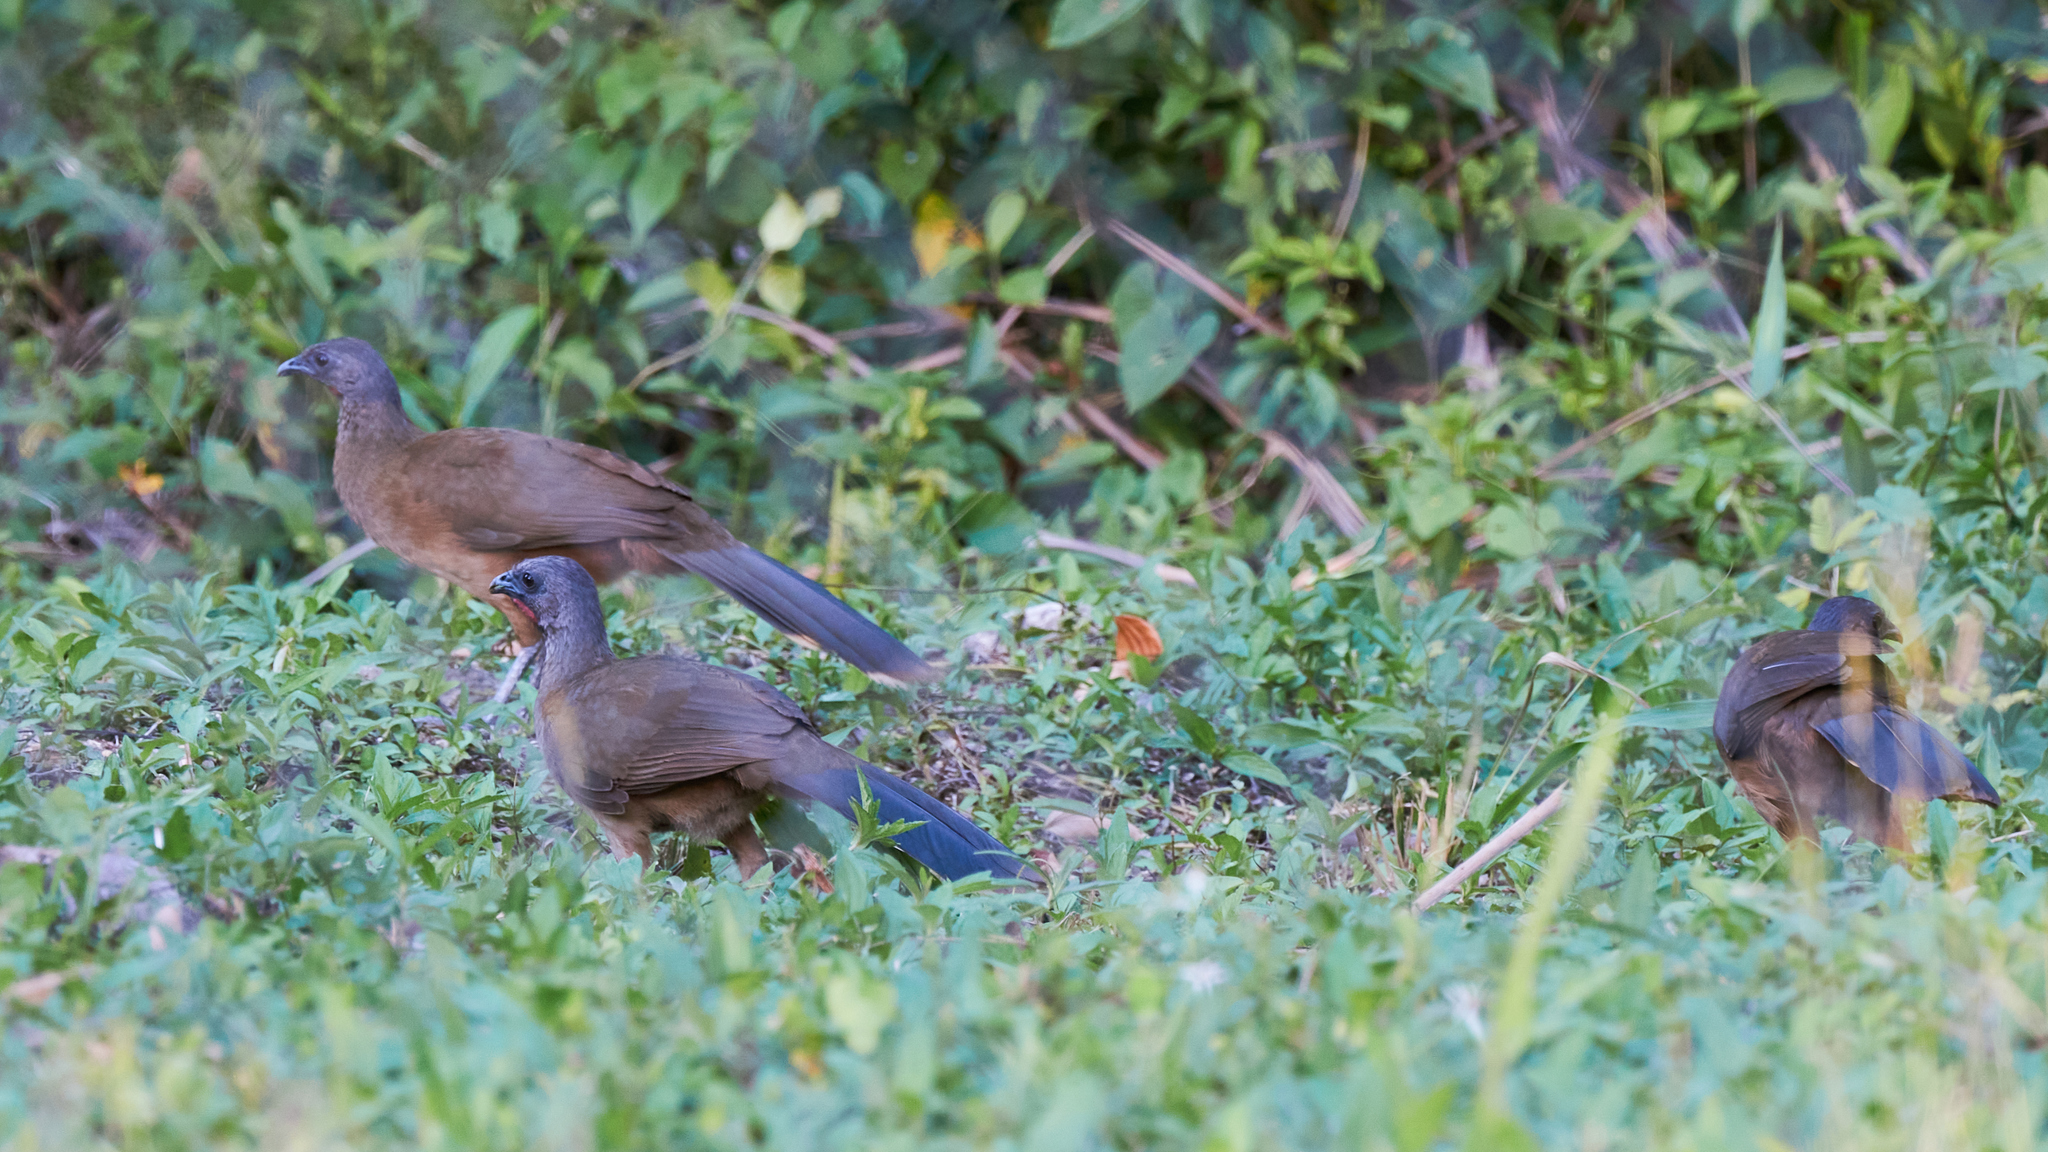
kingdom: Animalia
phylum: Chordata
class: Aves
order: Galliformes
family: Cracidae
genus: Ortalis
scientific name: Ortalis vetula
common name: Plain chachalaca
